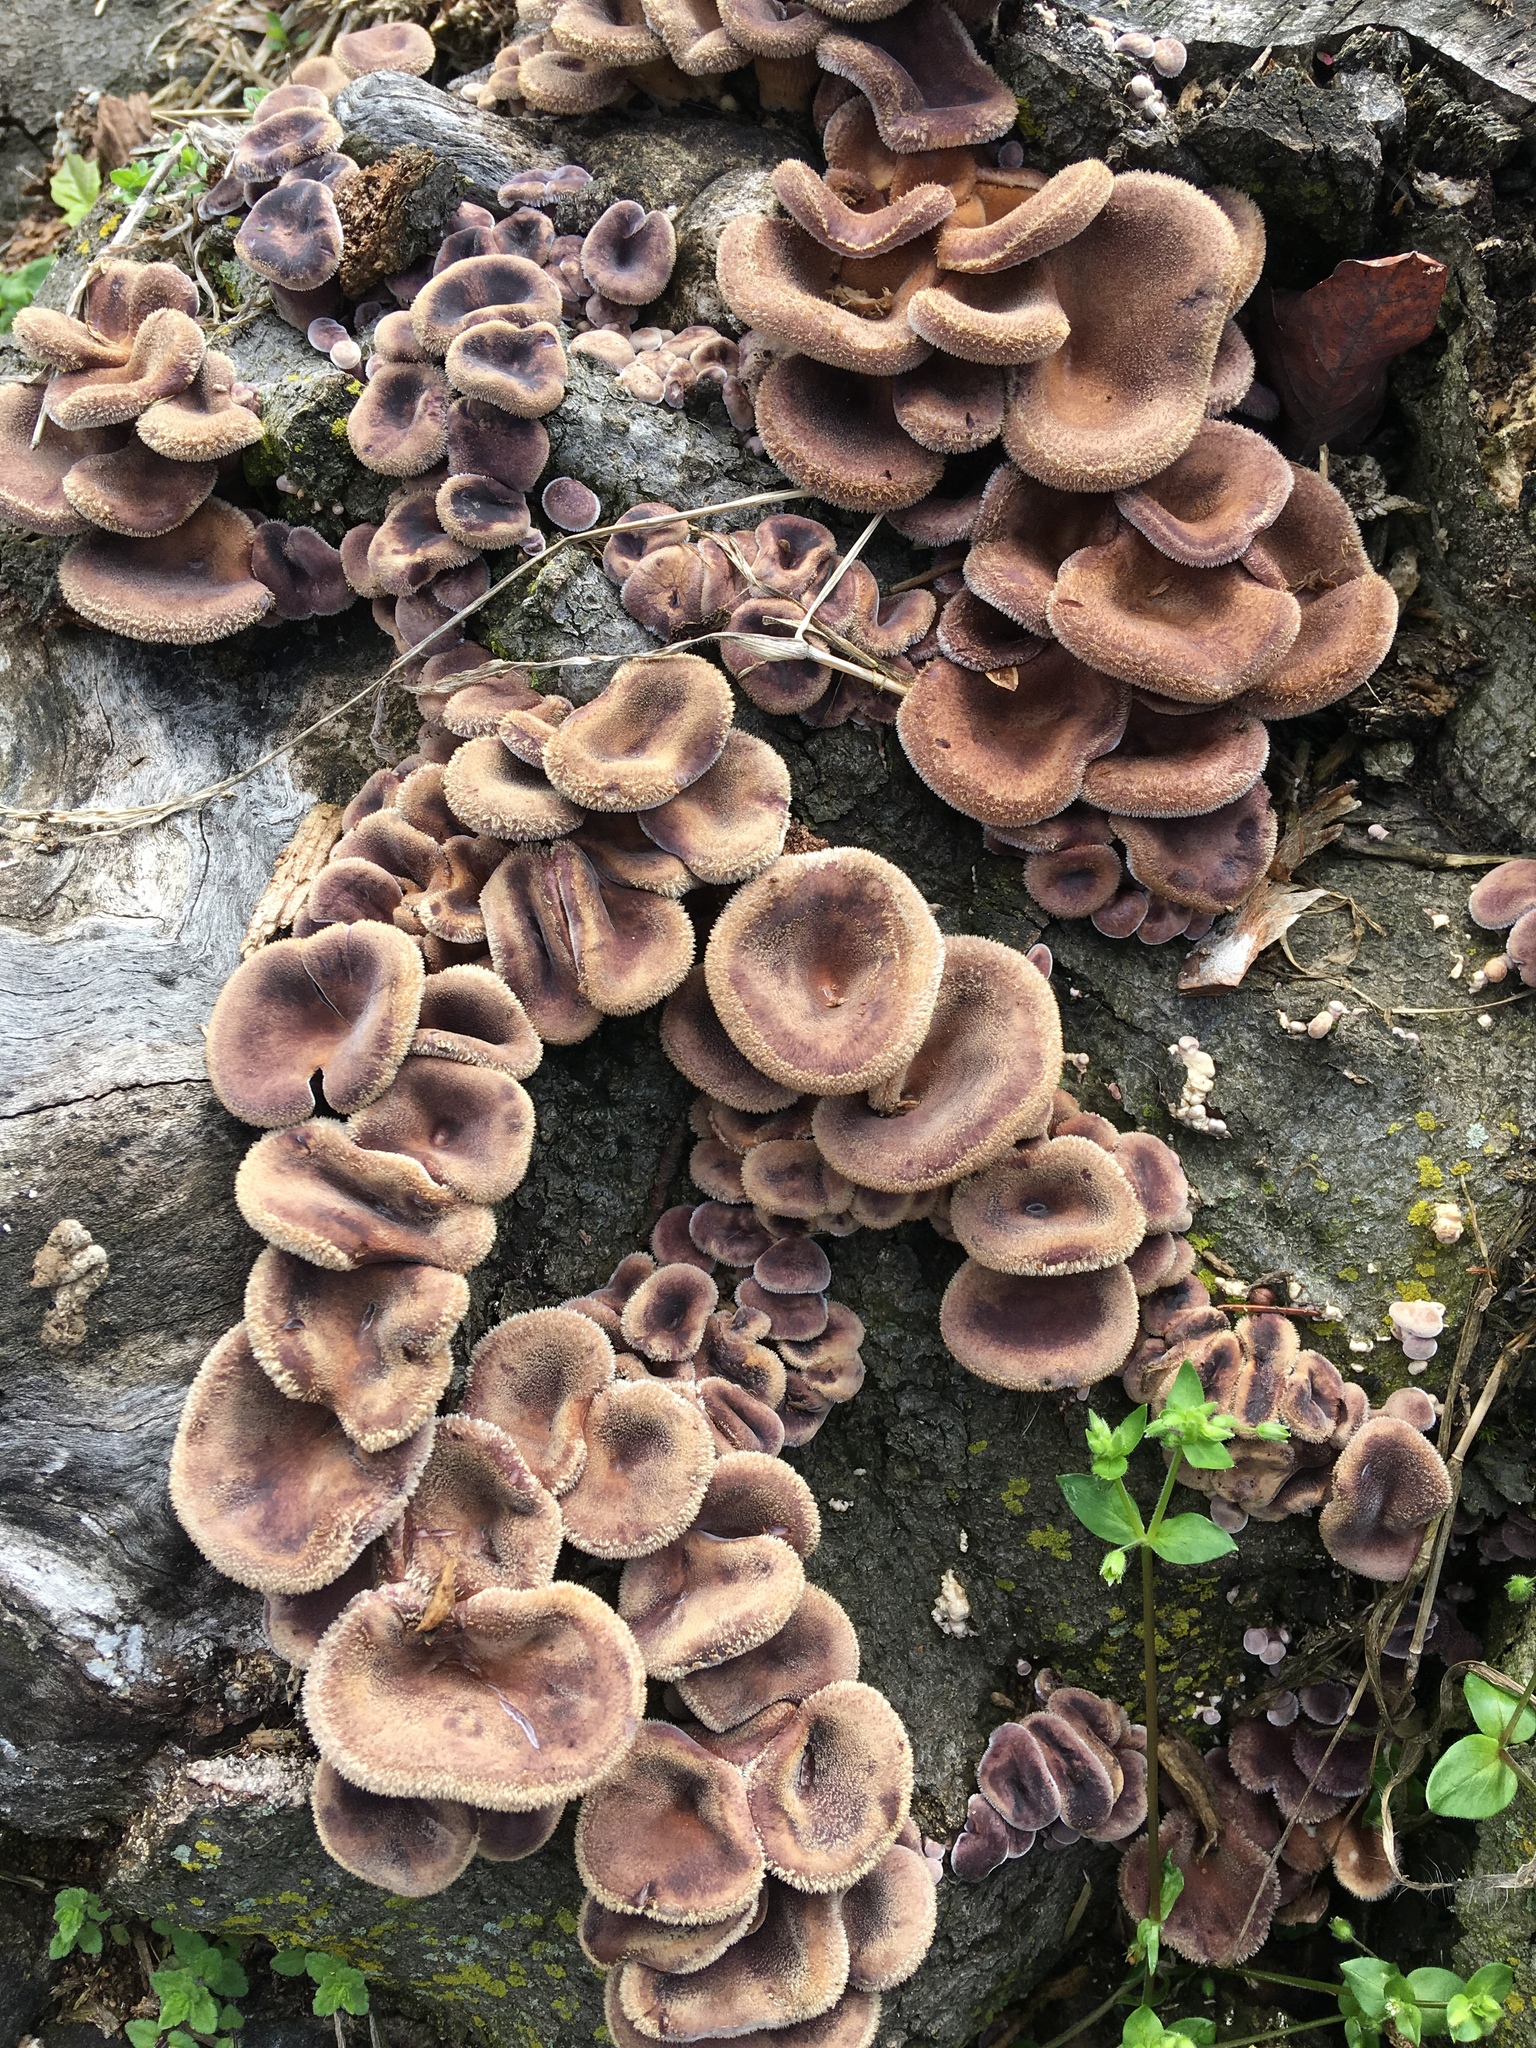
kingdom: Fungi
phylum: Basidiomycota
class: Agaricomycetes
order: Polyporales
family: Panaceae
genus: Panus
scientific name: Panus neostrigosus
